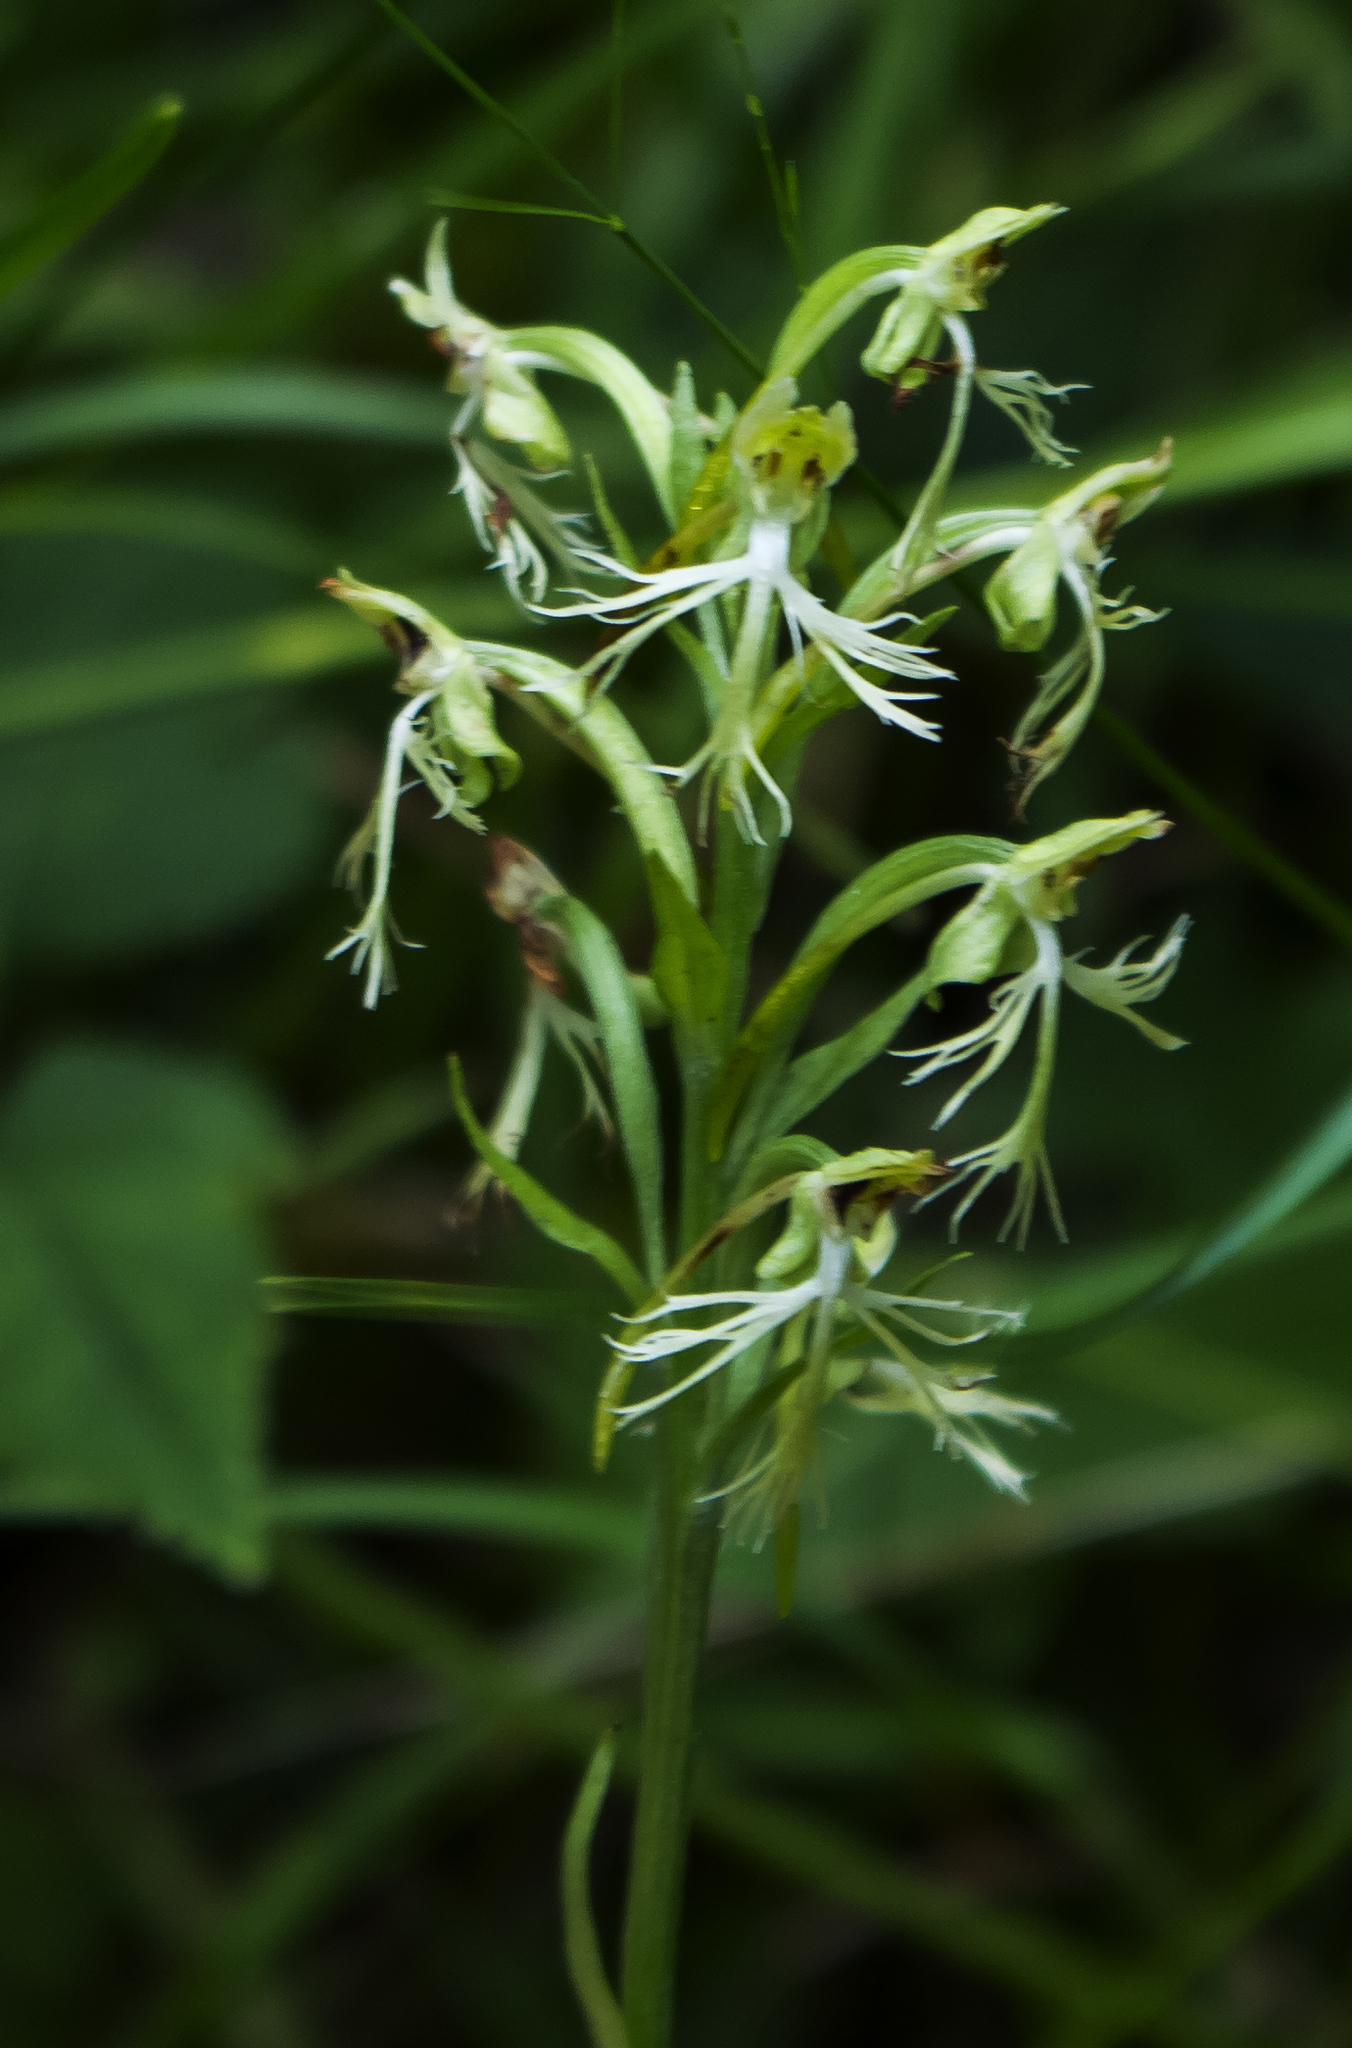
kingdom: Plantae
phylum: Tracheophyta
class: Liliopsida
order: Asparagales
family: Orchidaceae
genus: Platanthera
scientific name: Platanthera lacera
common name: Green fringed orchid
